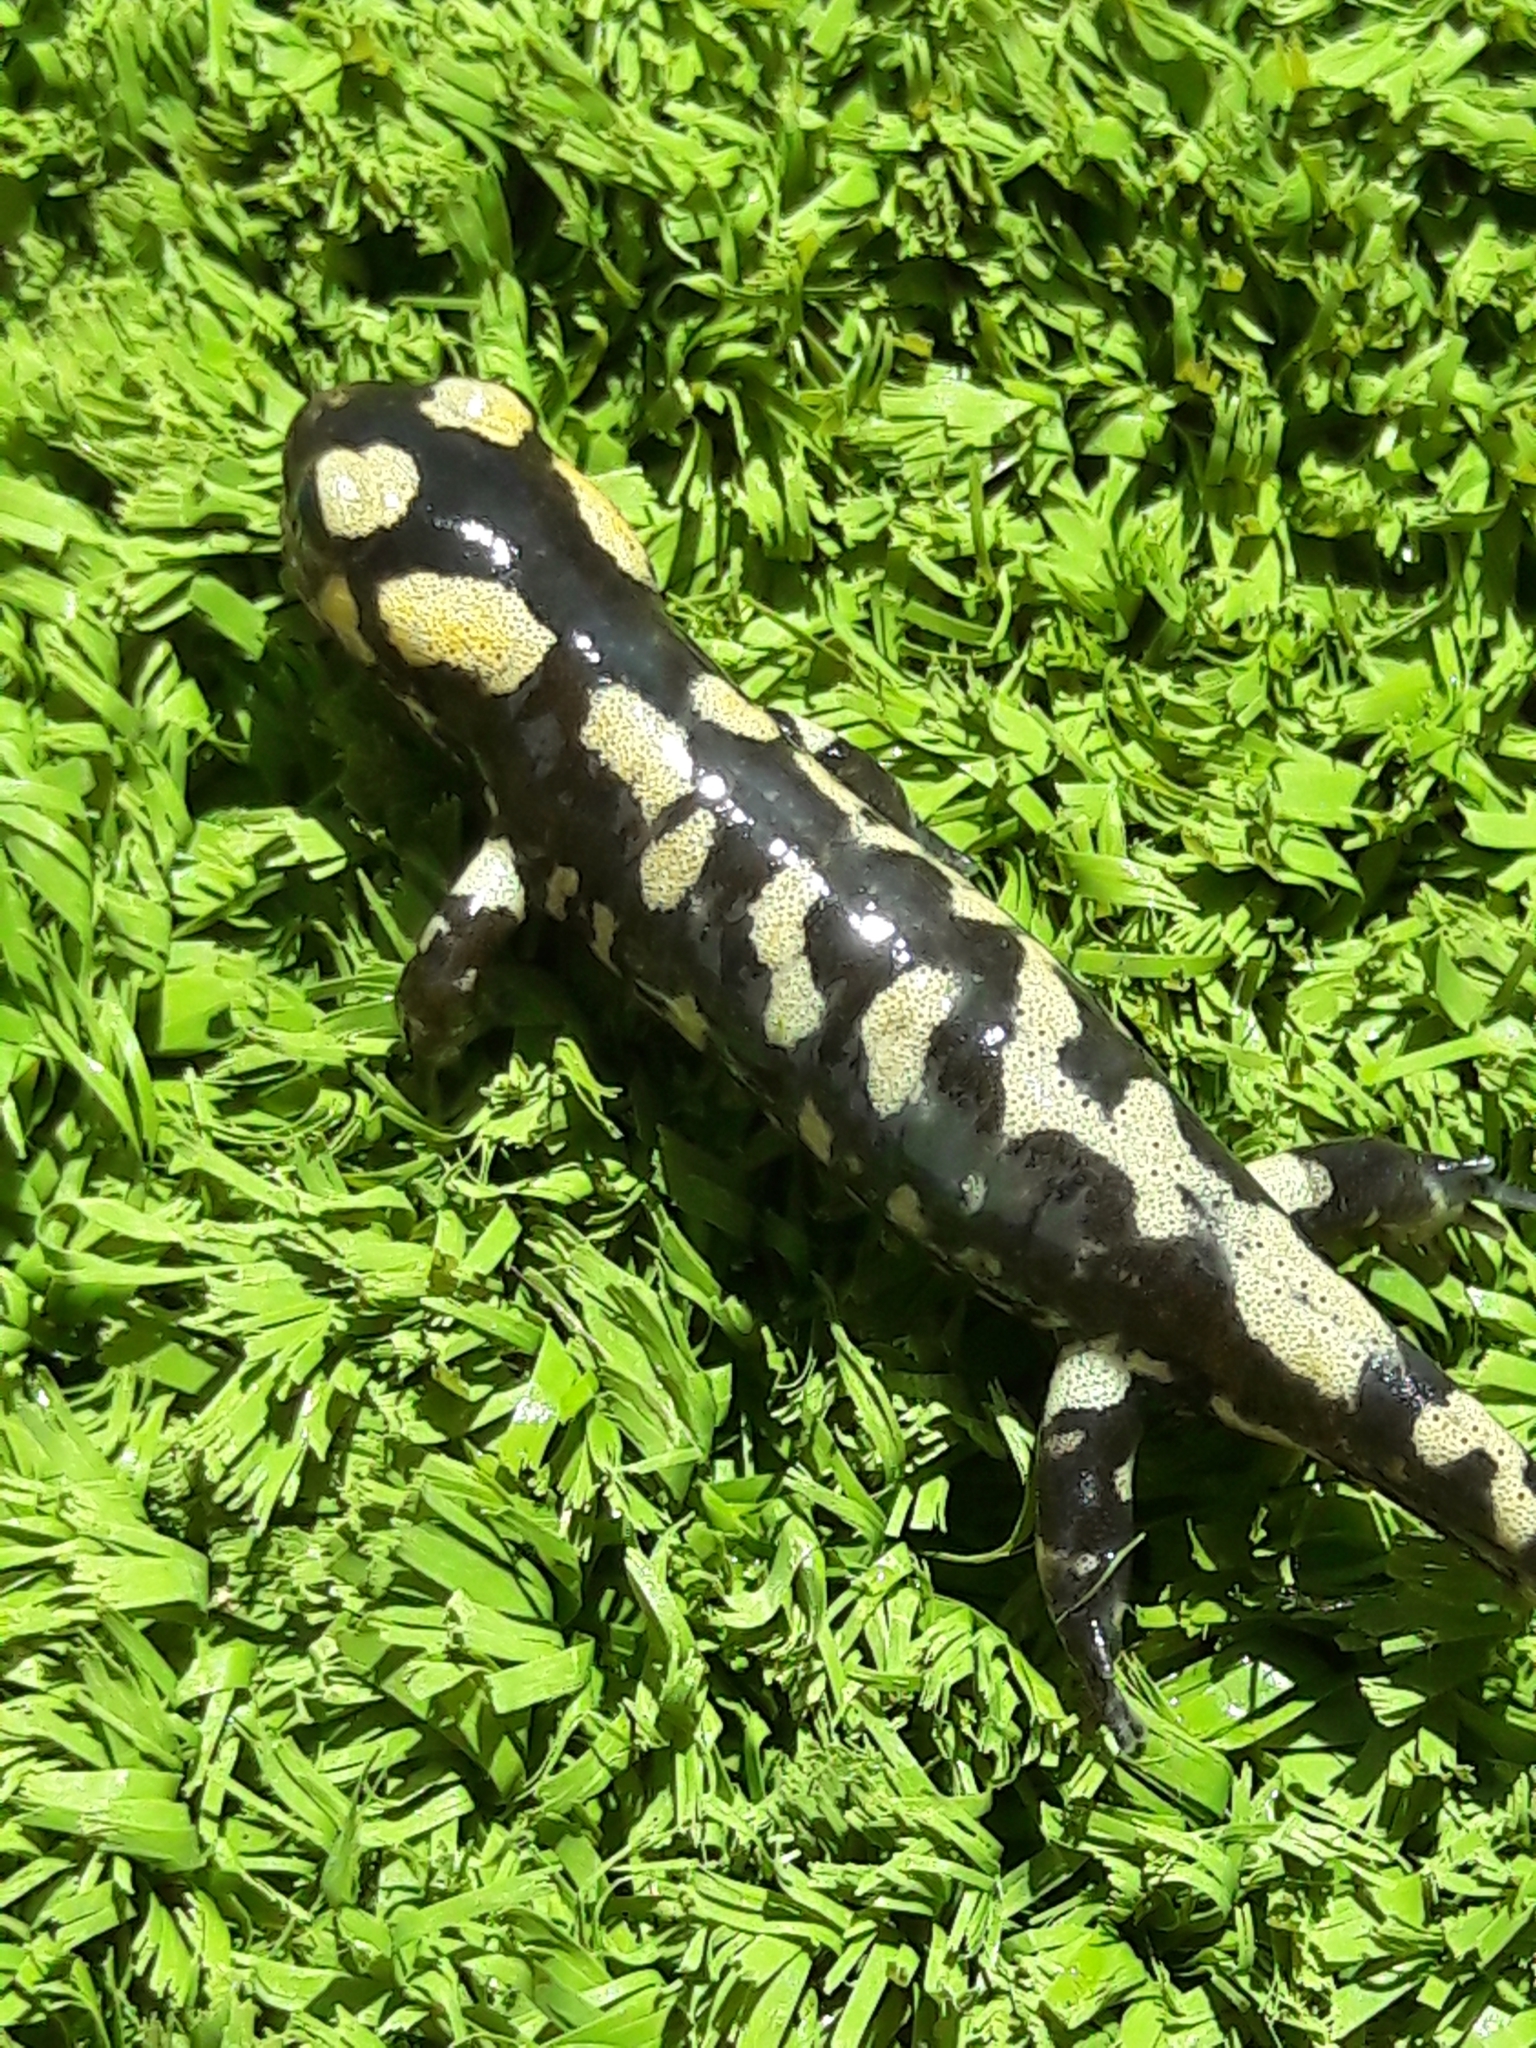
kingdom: Animalia
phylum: Chordata
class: Amphibia
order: Caudata
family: Salamandridae
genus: Salamandra
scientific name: Salamandra salamandra
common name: Fire salamander
